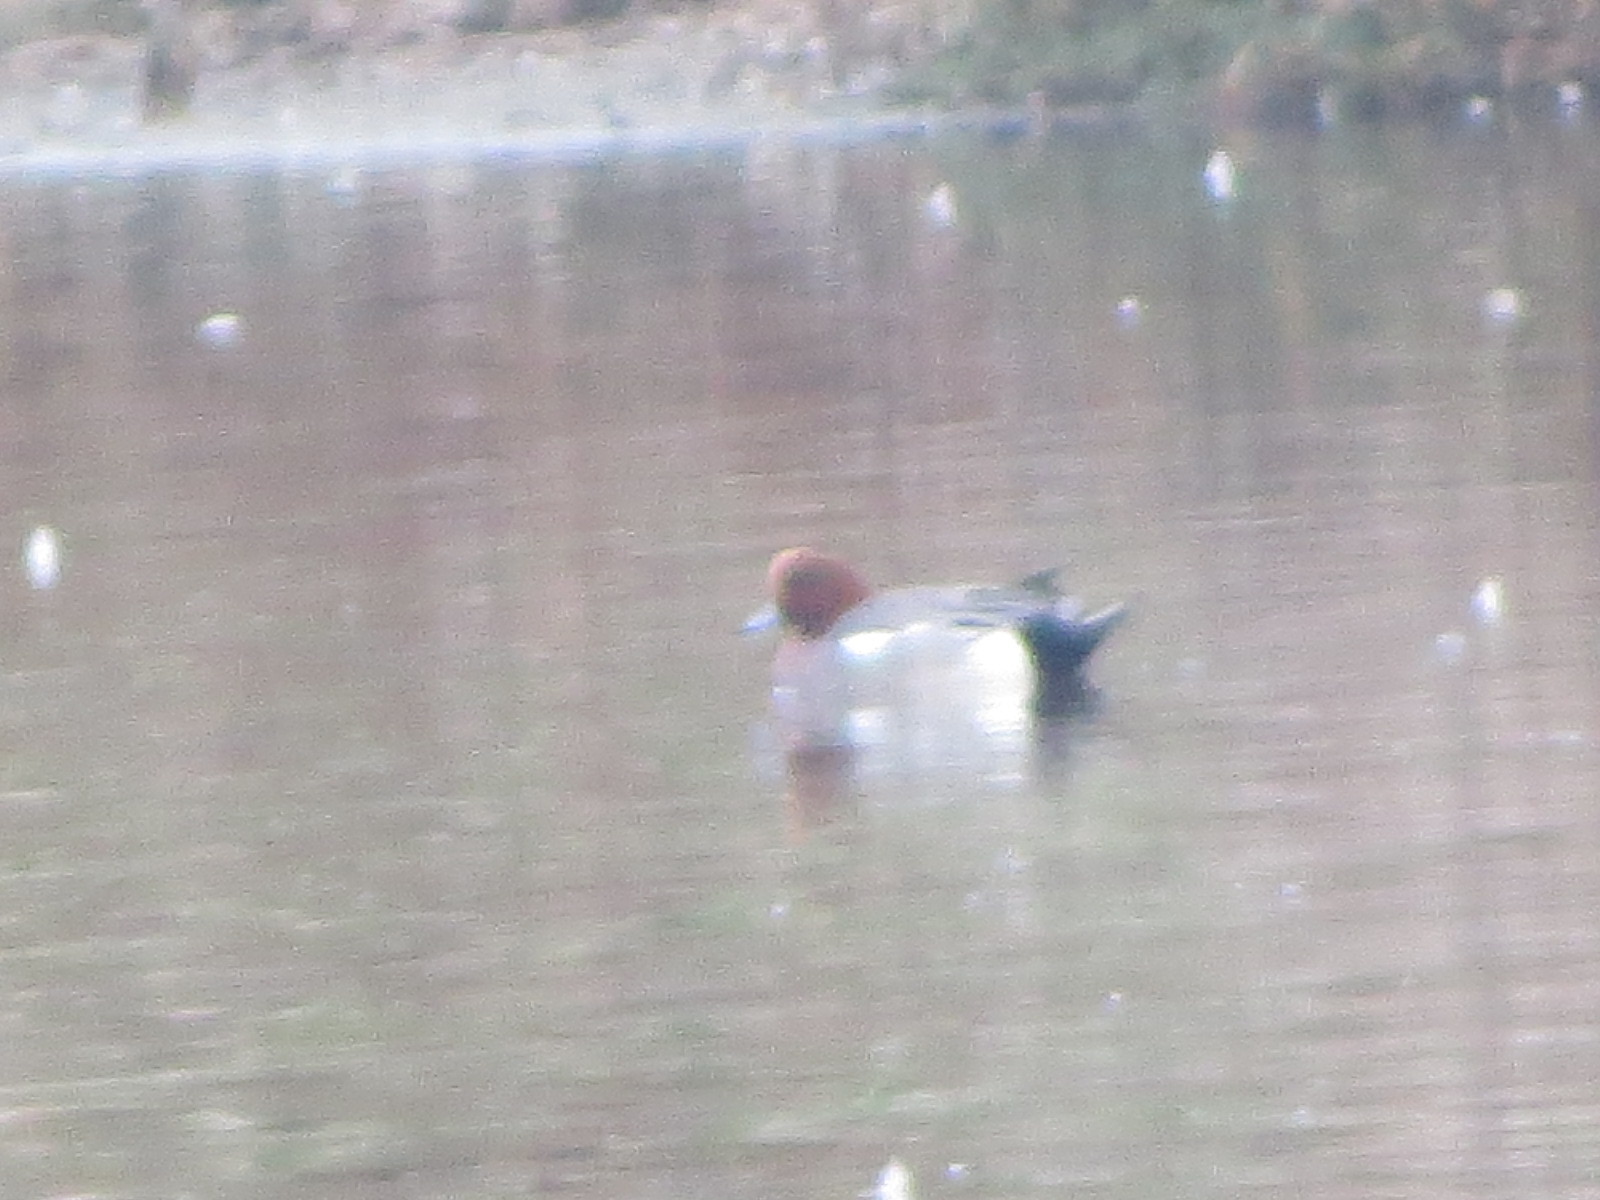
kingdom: Animalia
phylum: Chordata
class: Aves
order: Anseriformes
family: Anatidae
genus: Mareca
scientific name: Mareca penelope
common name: Eurasian wigeon
